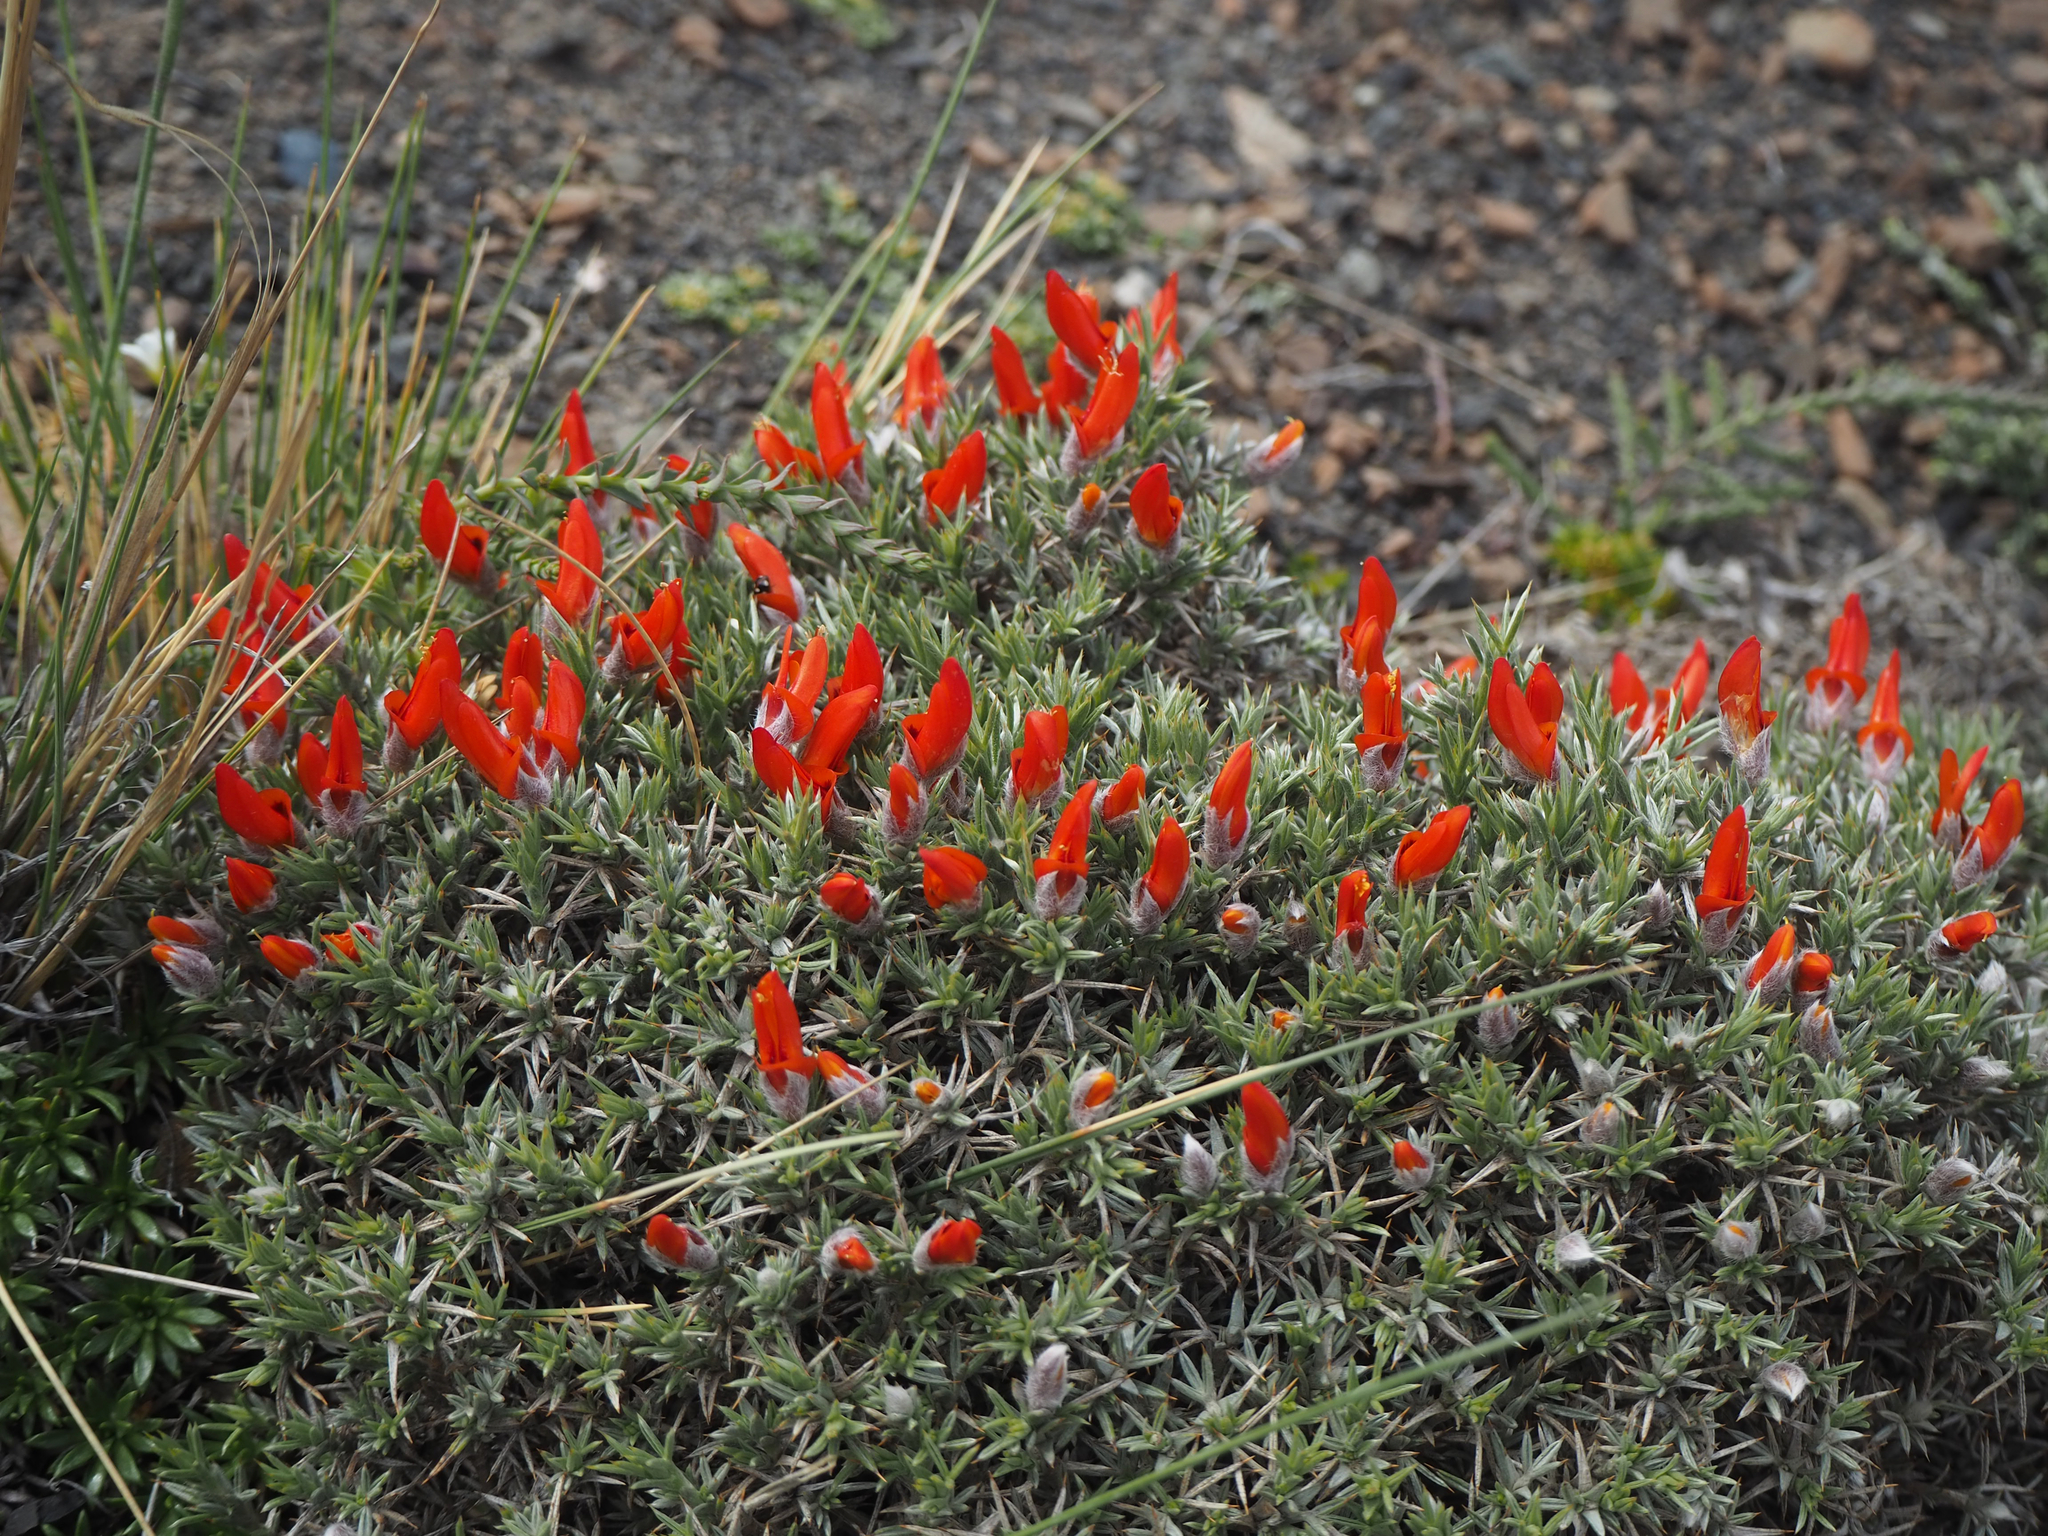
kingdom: Plantae
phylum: Tracheophyta
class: Magnoliopsida
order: Fabales
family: Fabaceae
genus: Anarthrophyllum
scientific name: Anarthrophyllum desideratum
